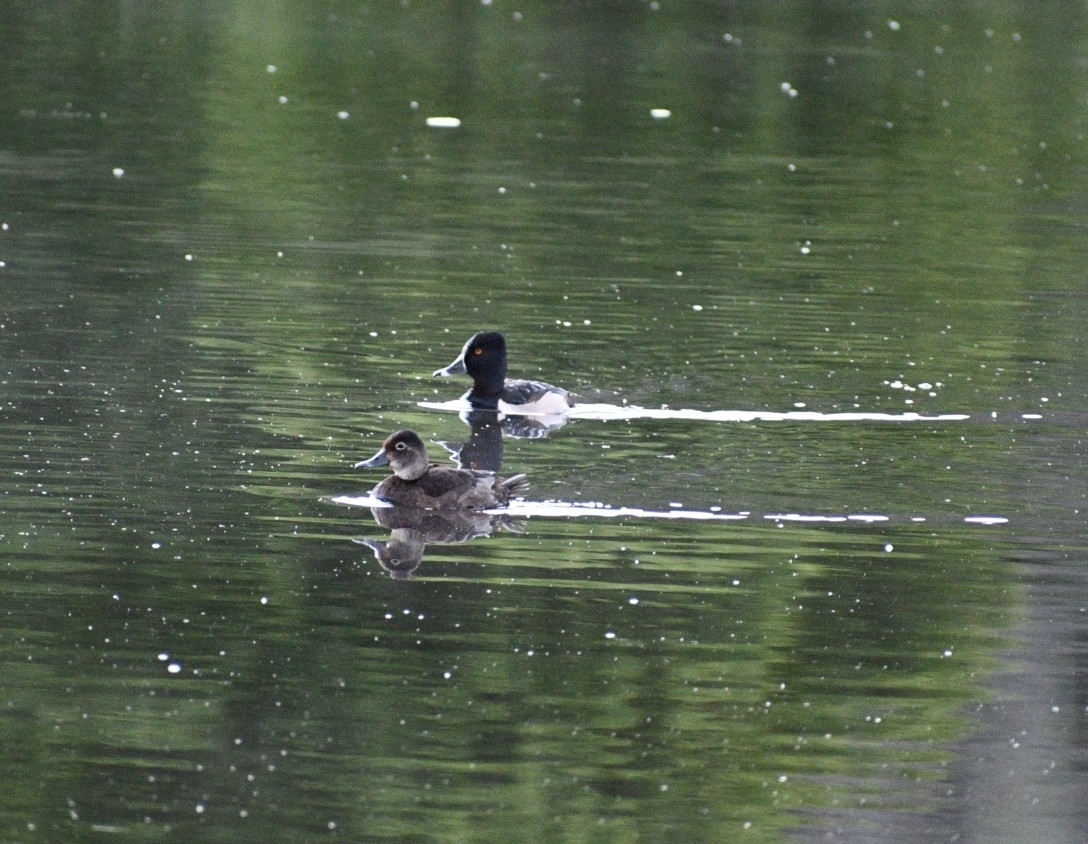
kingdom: Animalia
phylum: Chordata
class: Aves
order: Anseriformes
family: Anatidae
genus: Aythya
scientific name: Aythya collaris
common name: Ring-necked duck
